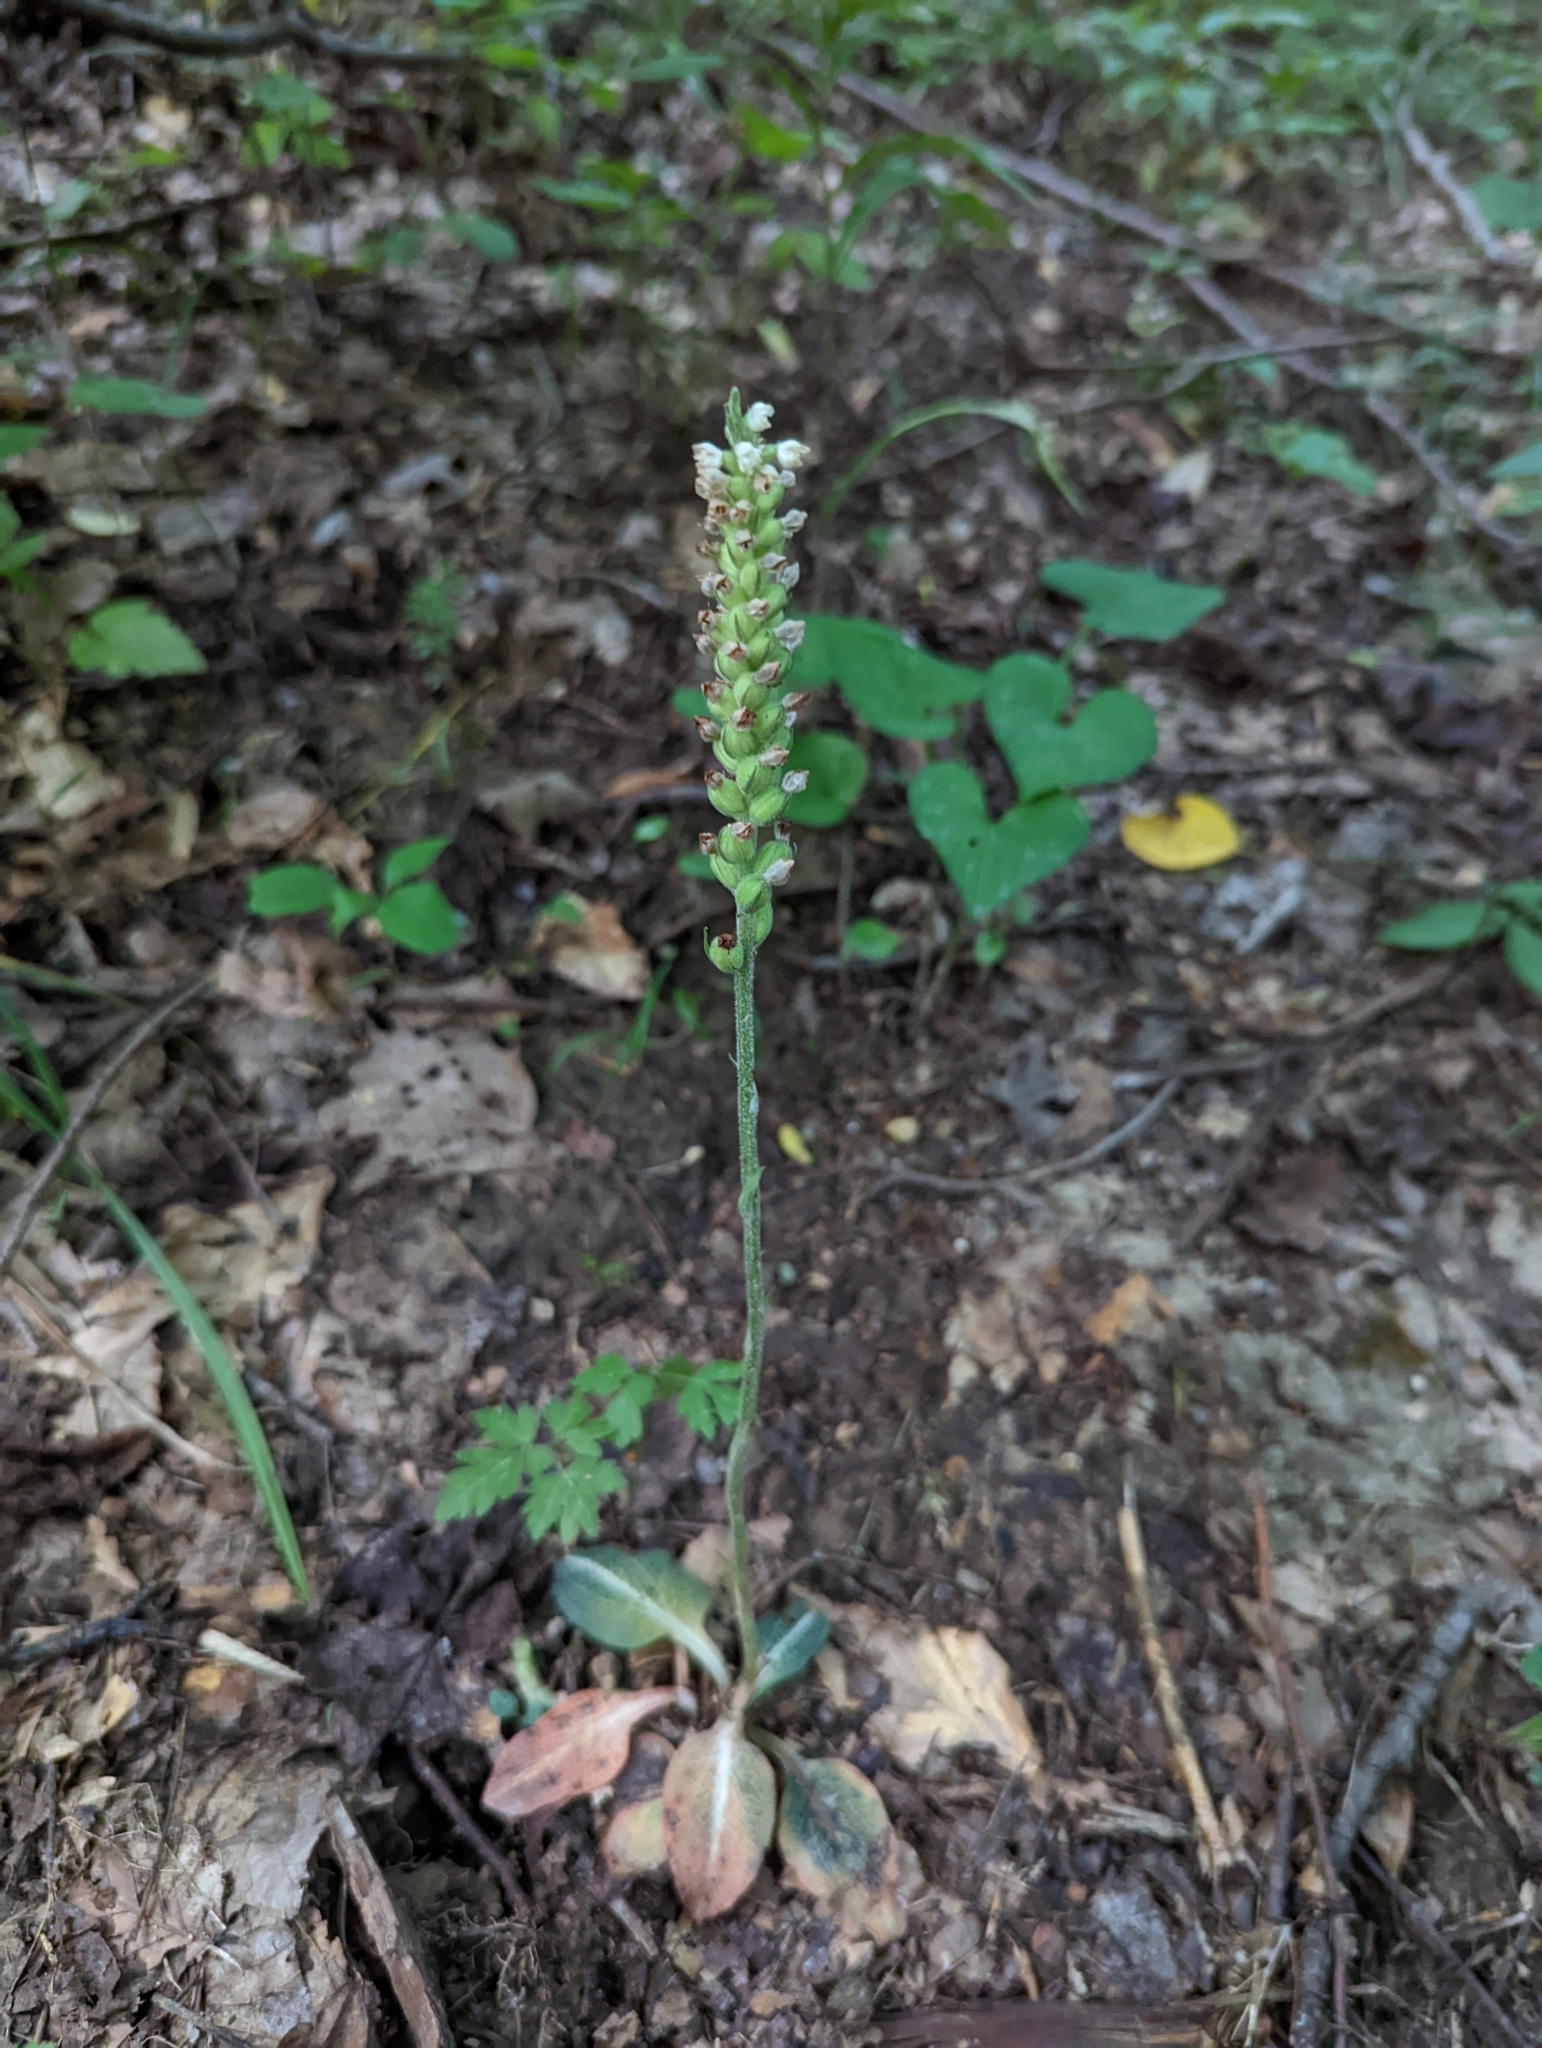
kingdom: Plantae
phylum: Tracheophyta
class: Liliopsida
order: Asparagales
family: Orchidaceae
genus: Goodyera
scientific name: Goodyera pubescens
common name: Downy rattlesnake-plantain
